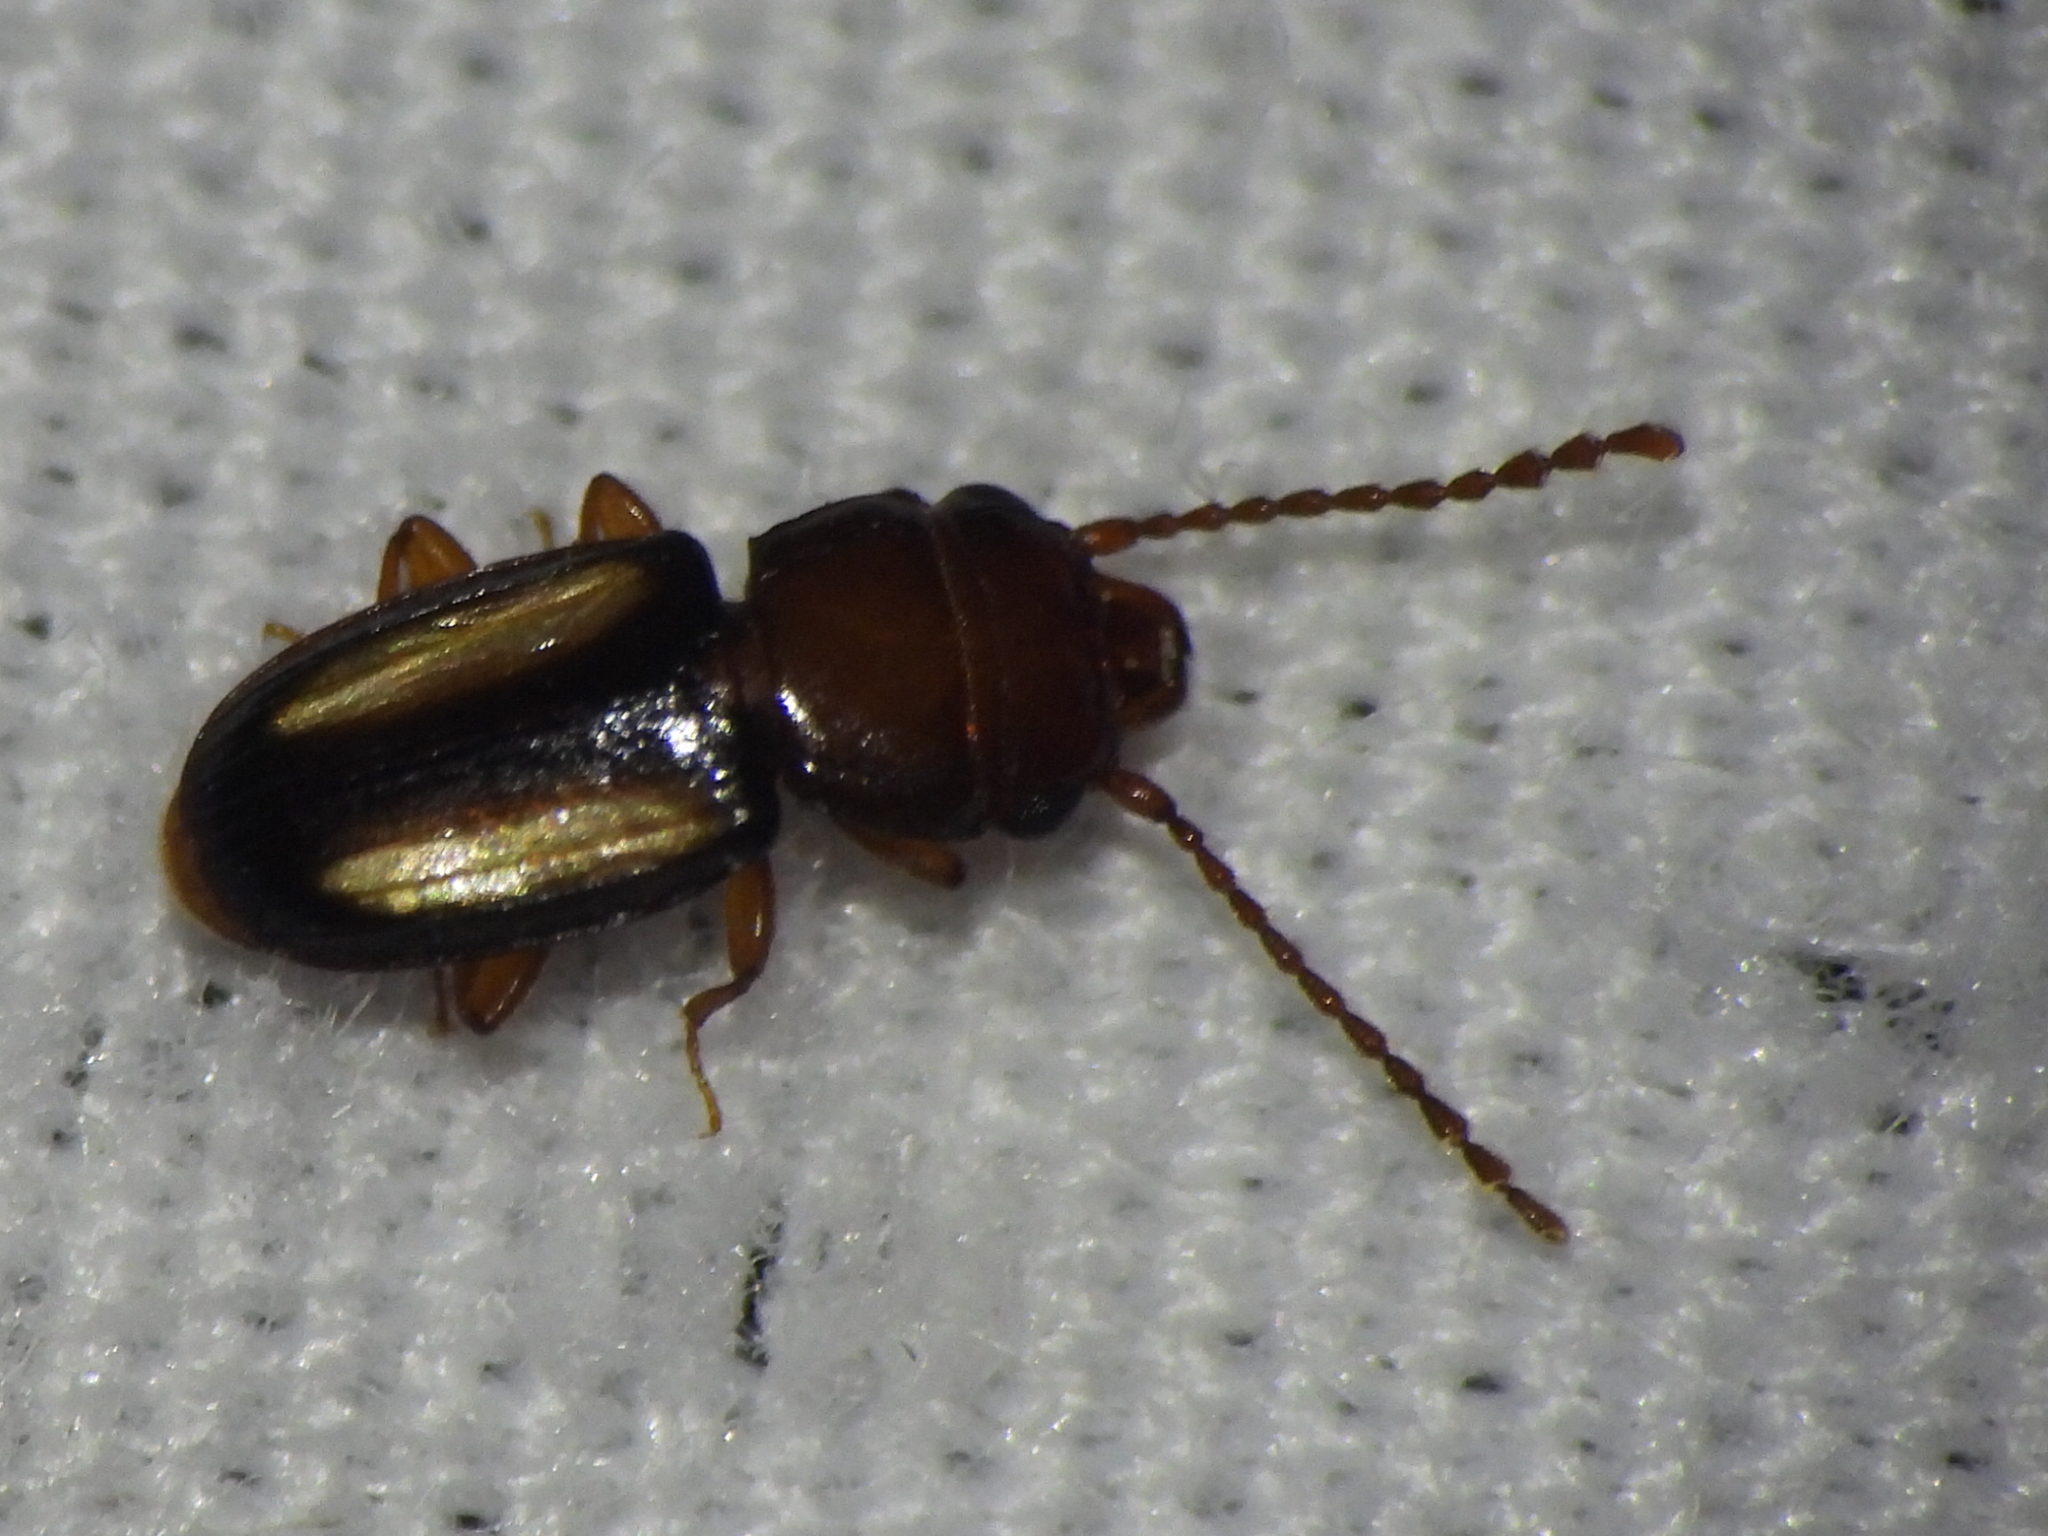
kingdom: Animalia
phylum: Arthropoda
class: Insecta
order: Coleoptera
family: Laemophloeidae
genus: Laemophloeus
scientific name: Laemophloeus terminalis
